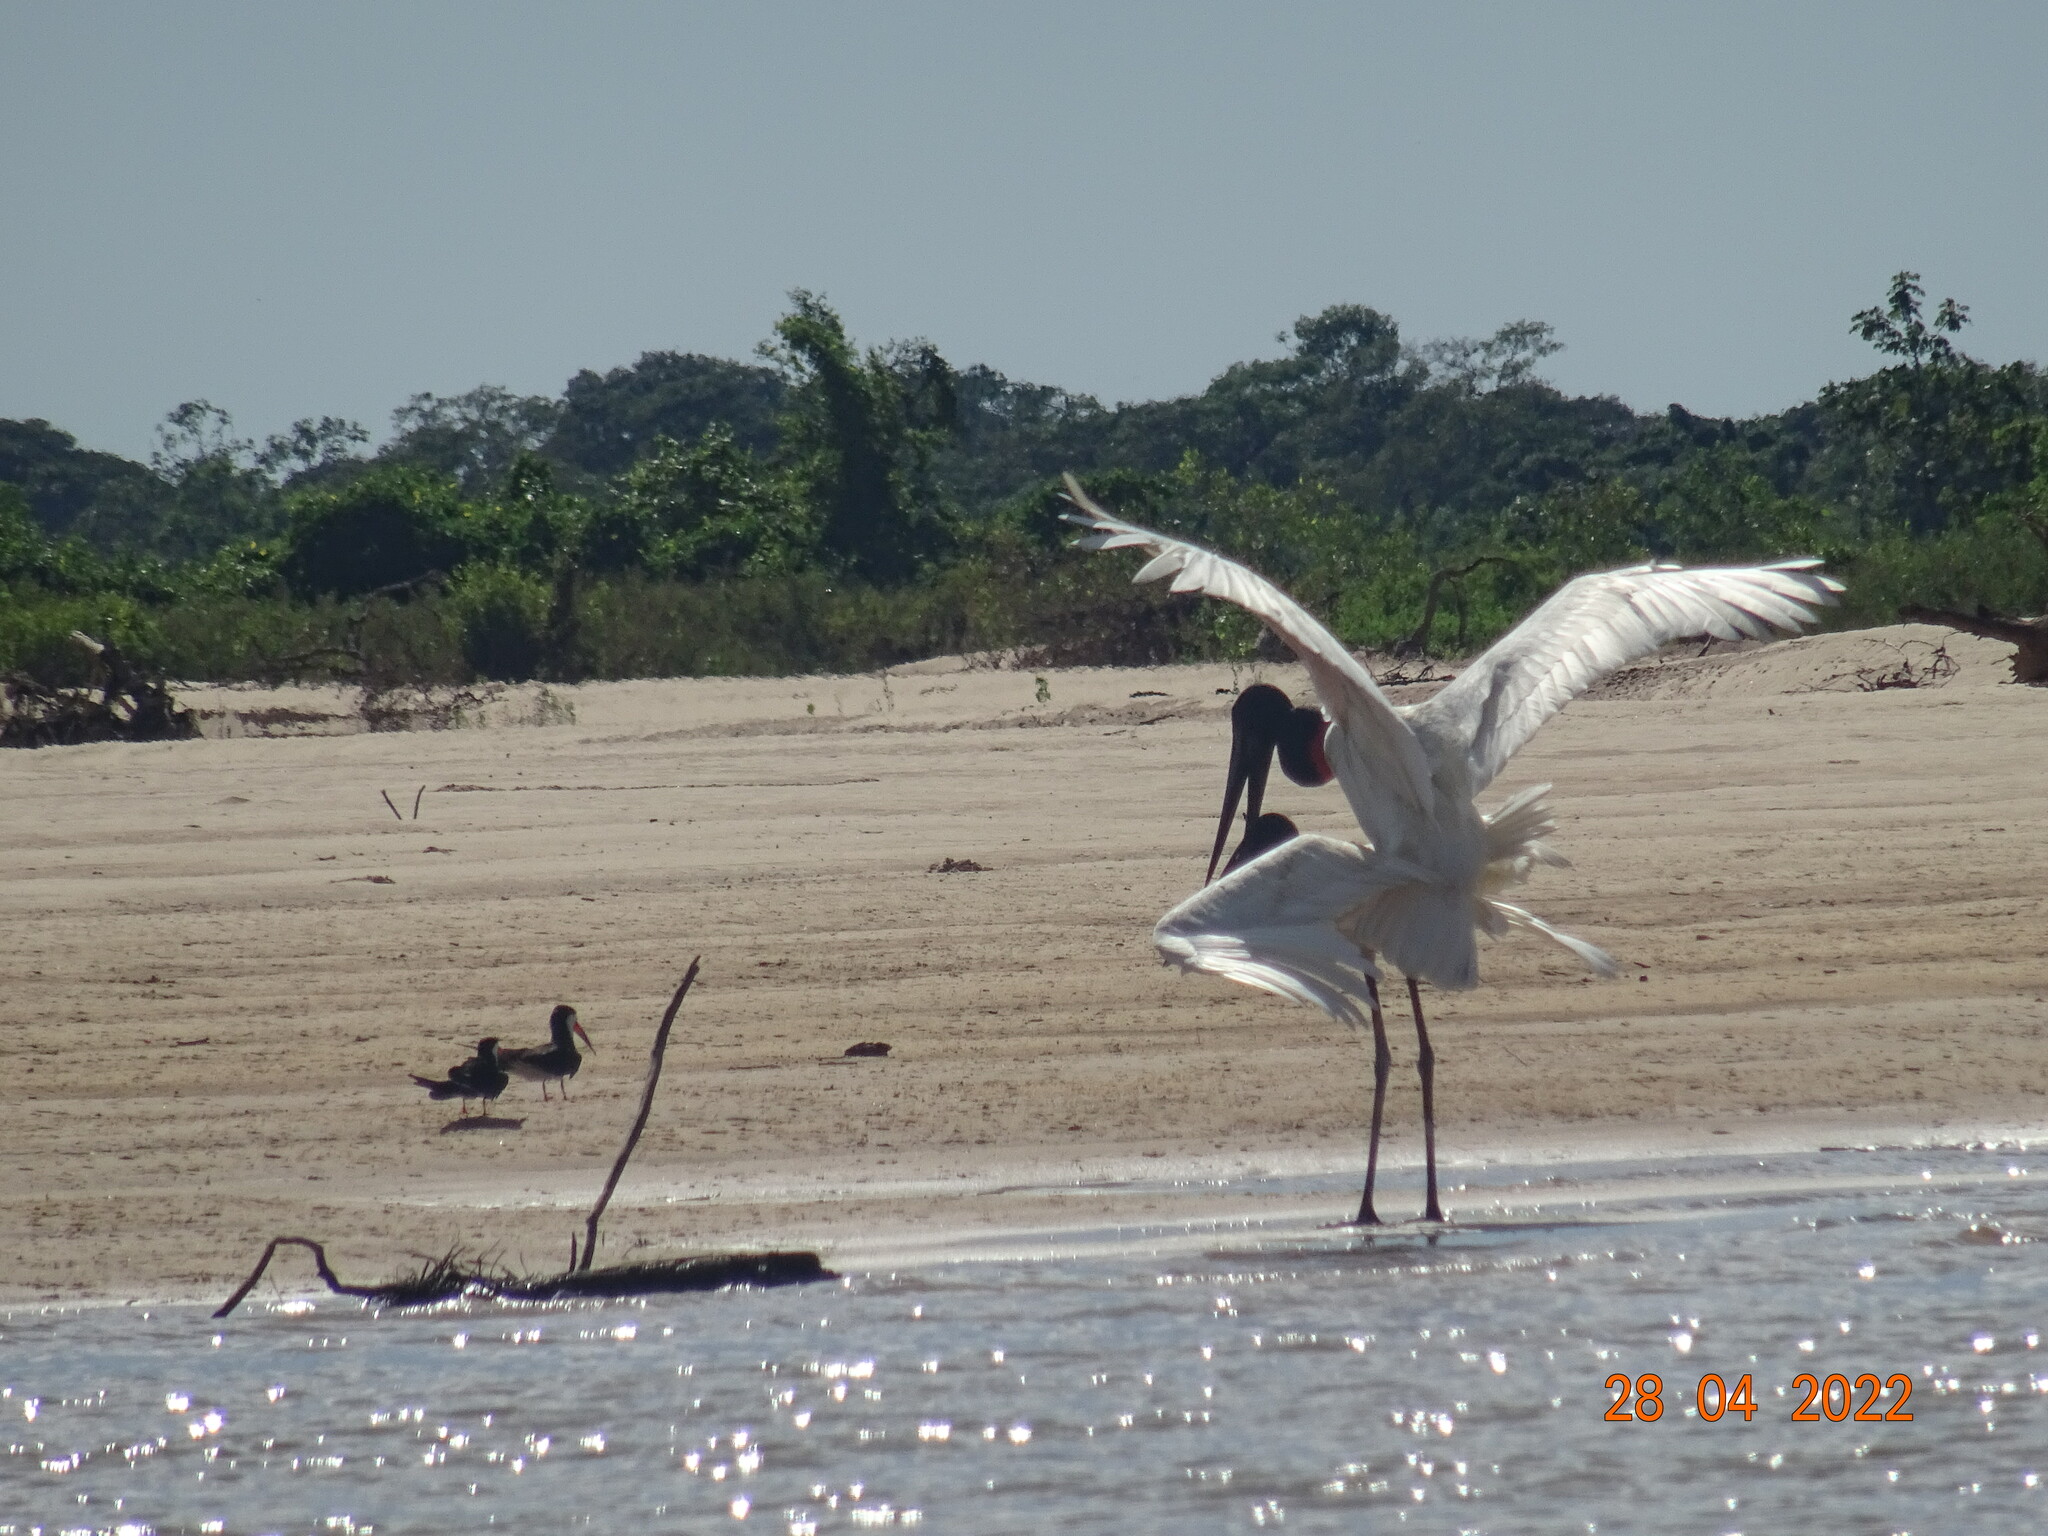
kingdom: Animalia
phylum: Chordata
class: Aves
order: Ciconiiformes
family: Ciconiidae
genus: Jabiru
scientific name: Jabiru mycteria
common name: Jabiru
